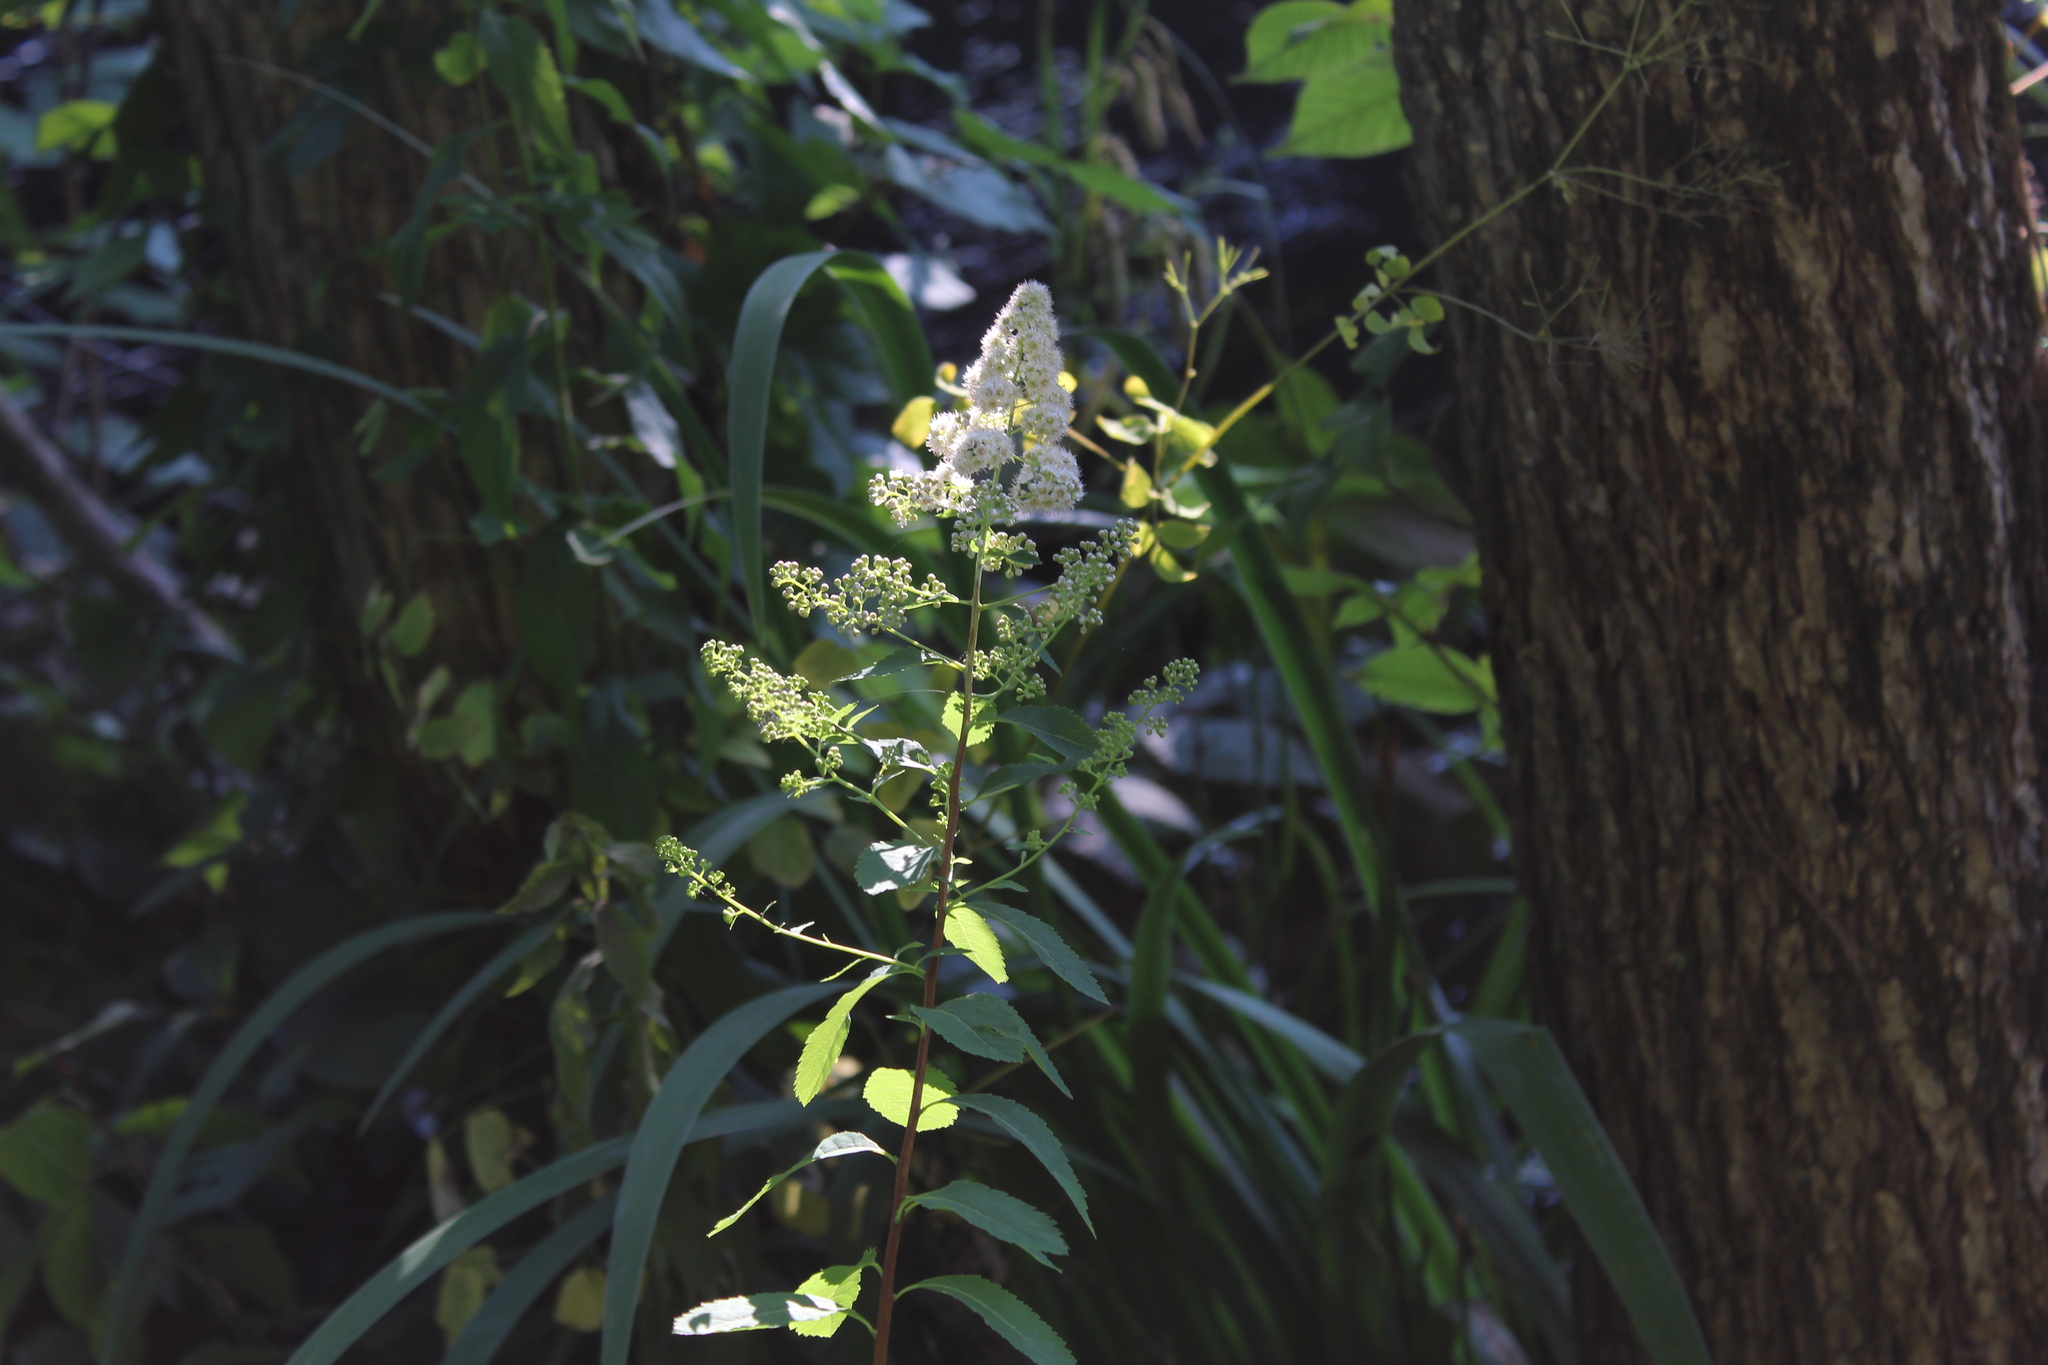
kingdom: Plantae
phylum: Tracheophyta
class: Magnoliopsida
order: Rosales
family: Rosaceae
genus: Spiraea
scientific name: Spiraea alba
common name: Pale bridewort
